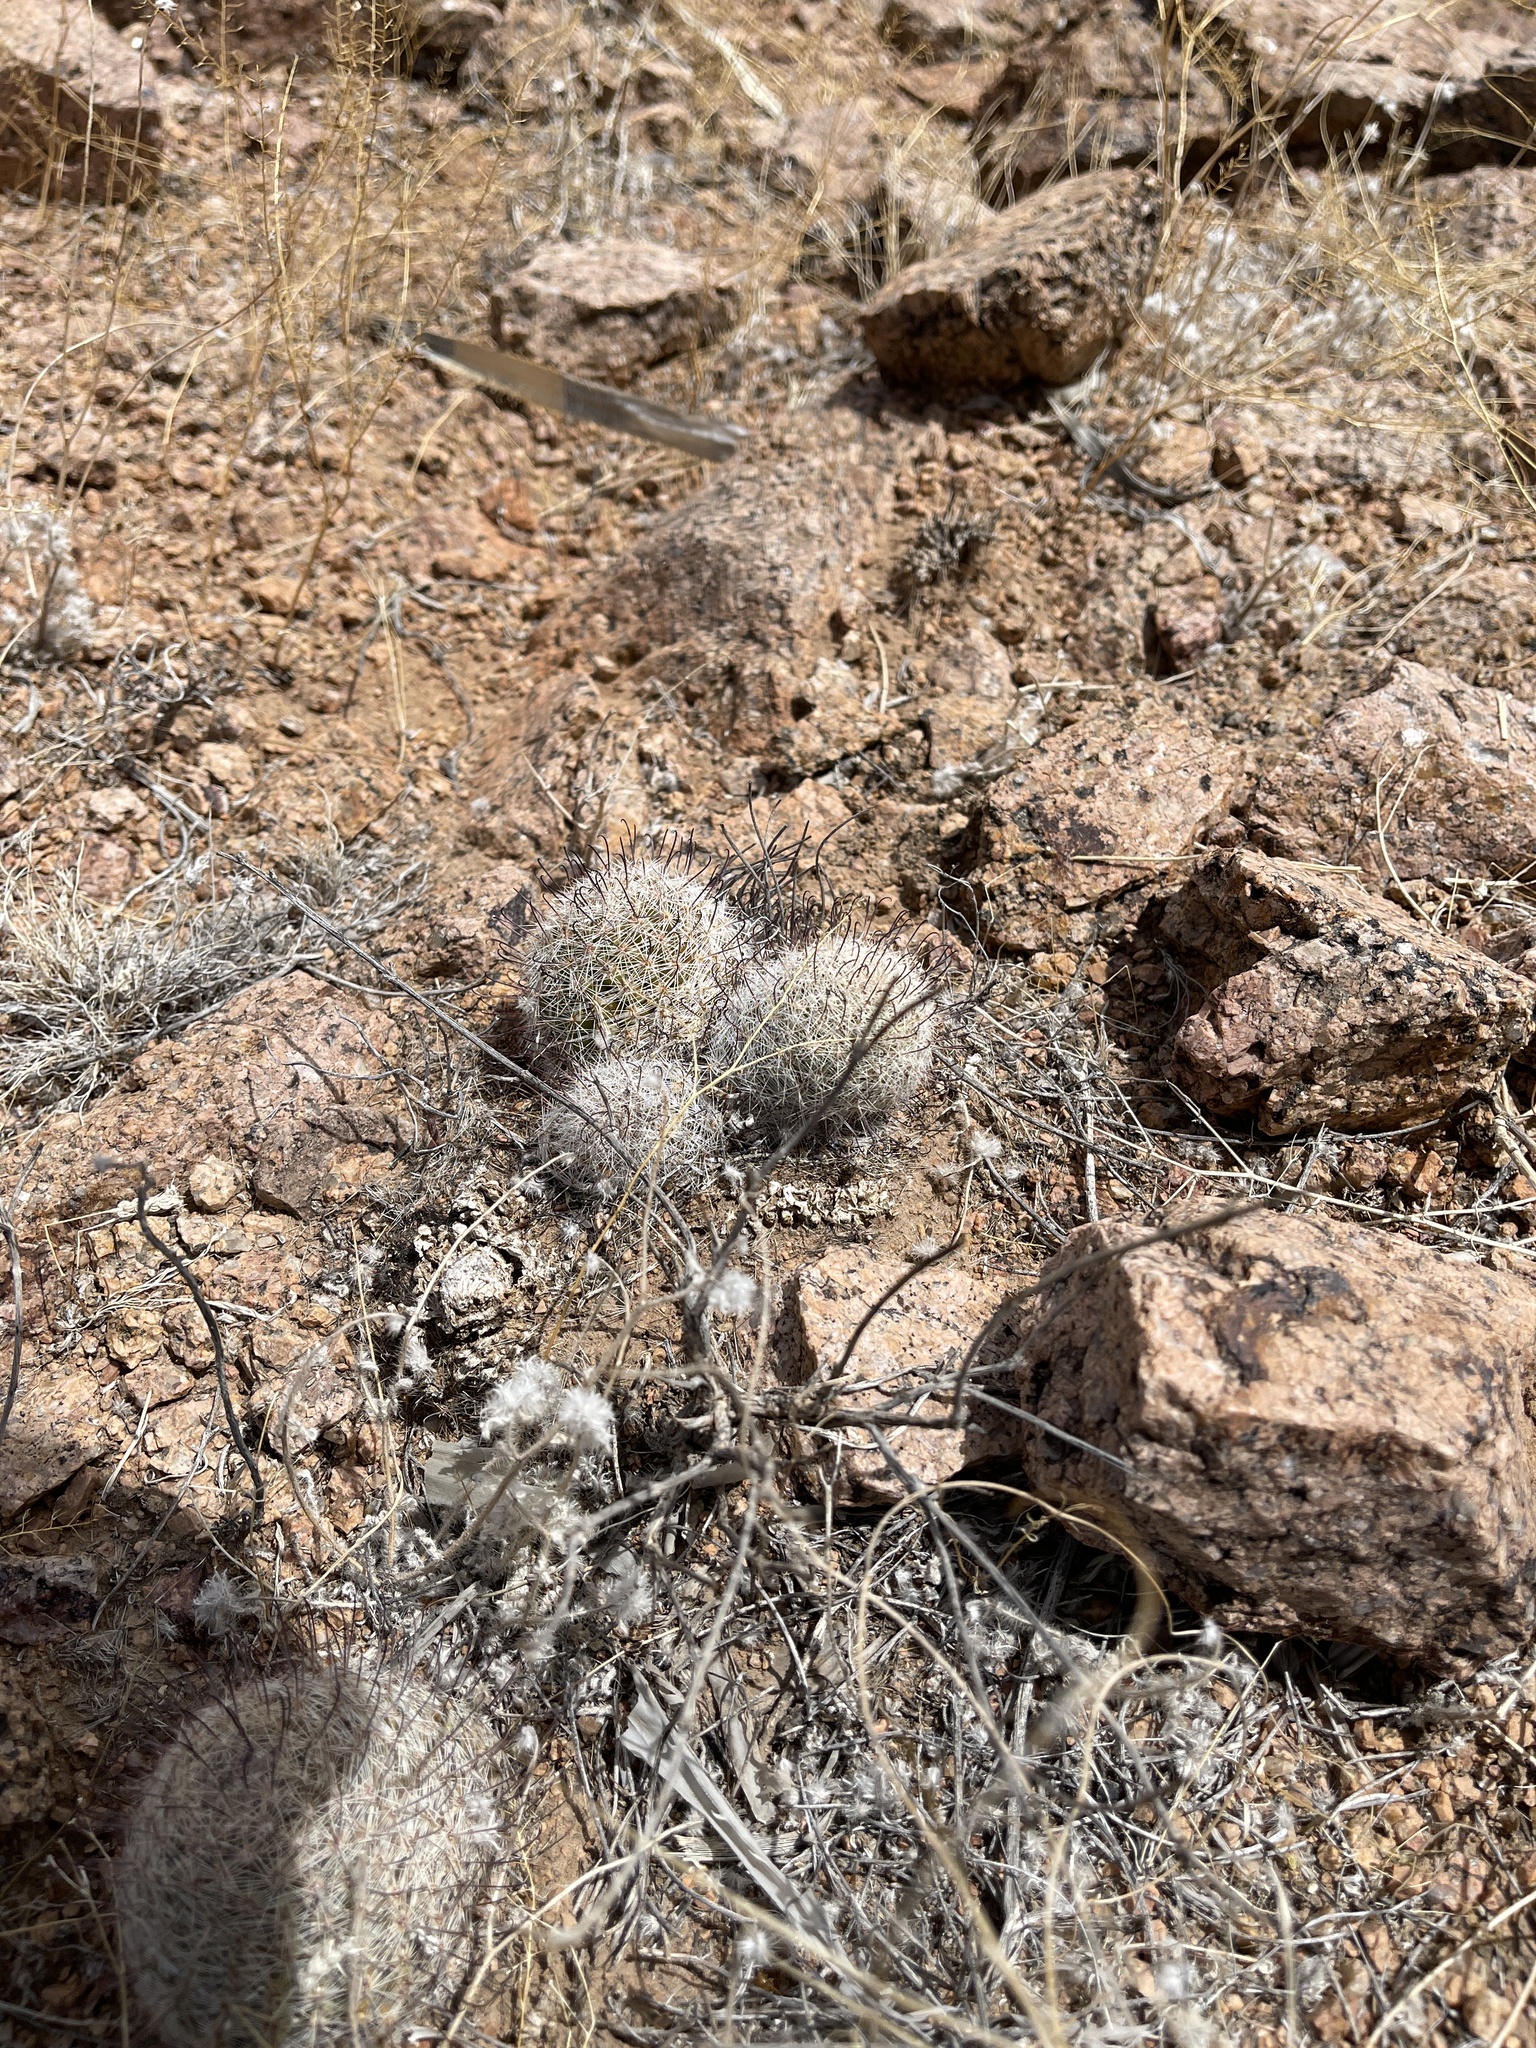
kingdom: Plantae
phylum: Tracheophyta
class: Magnoliopsida
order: Caryophyllales
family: Cactaceae
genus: Cochemiea
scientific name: Cochemiea grahamii
